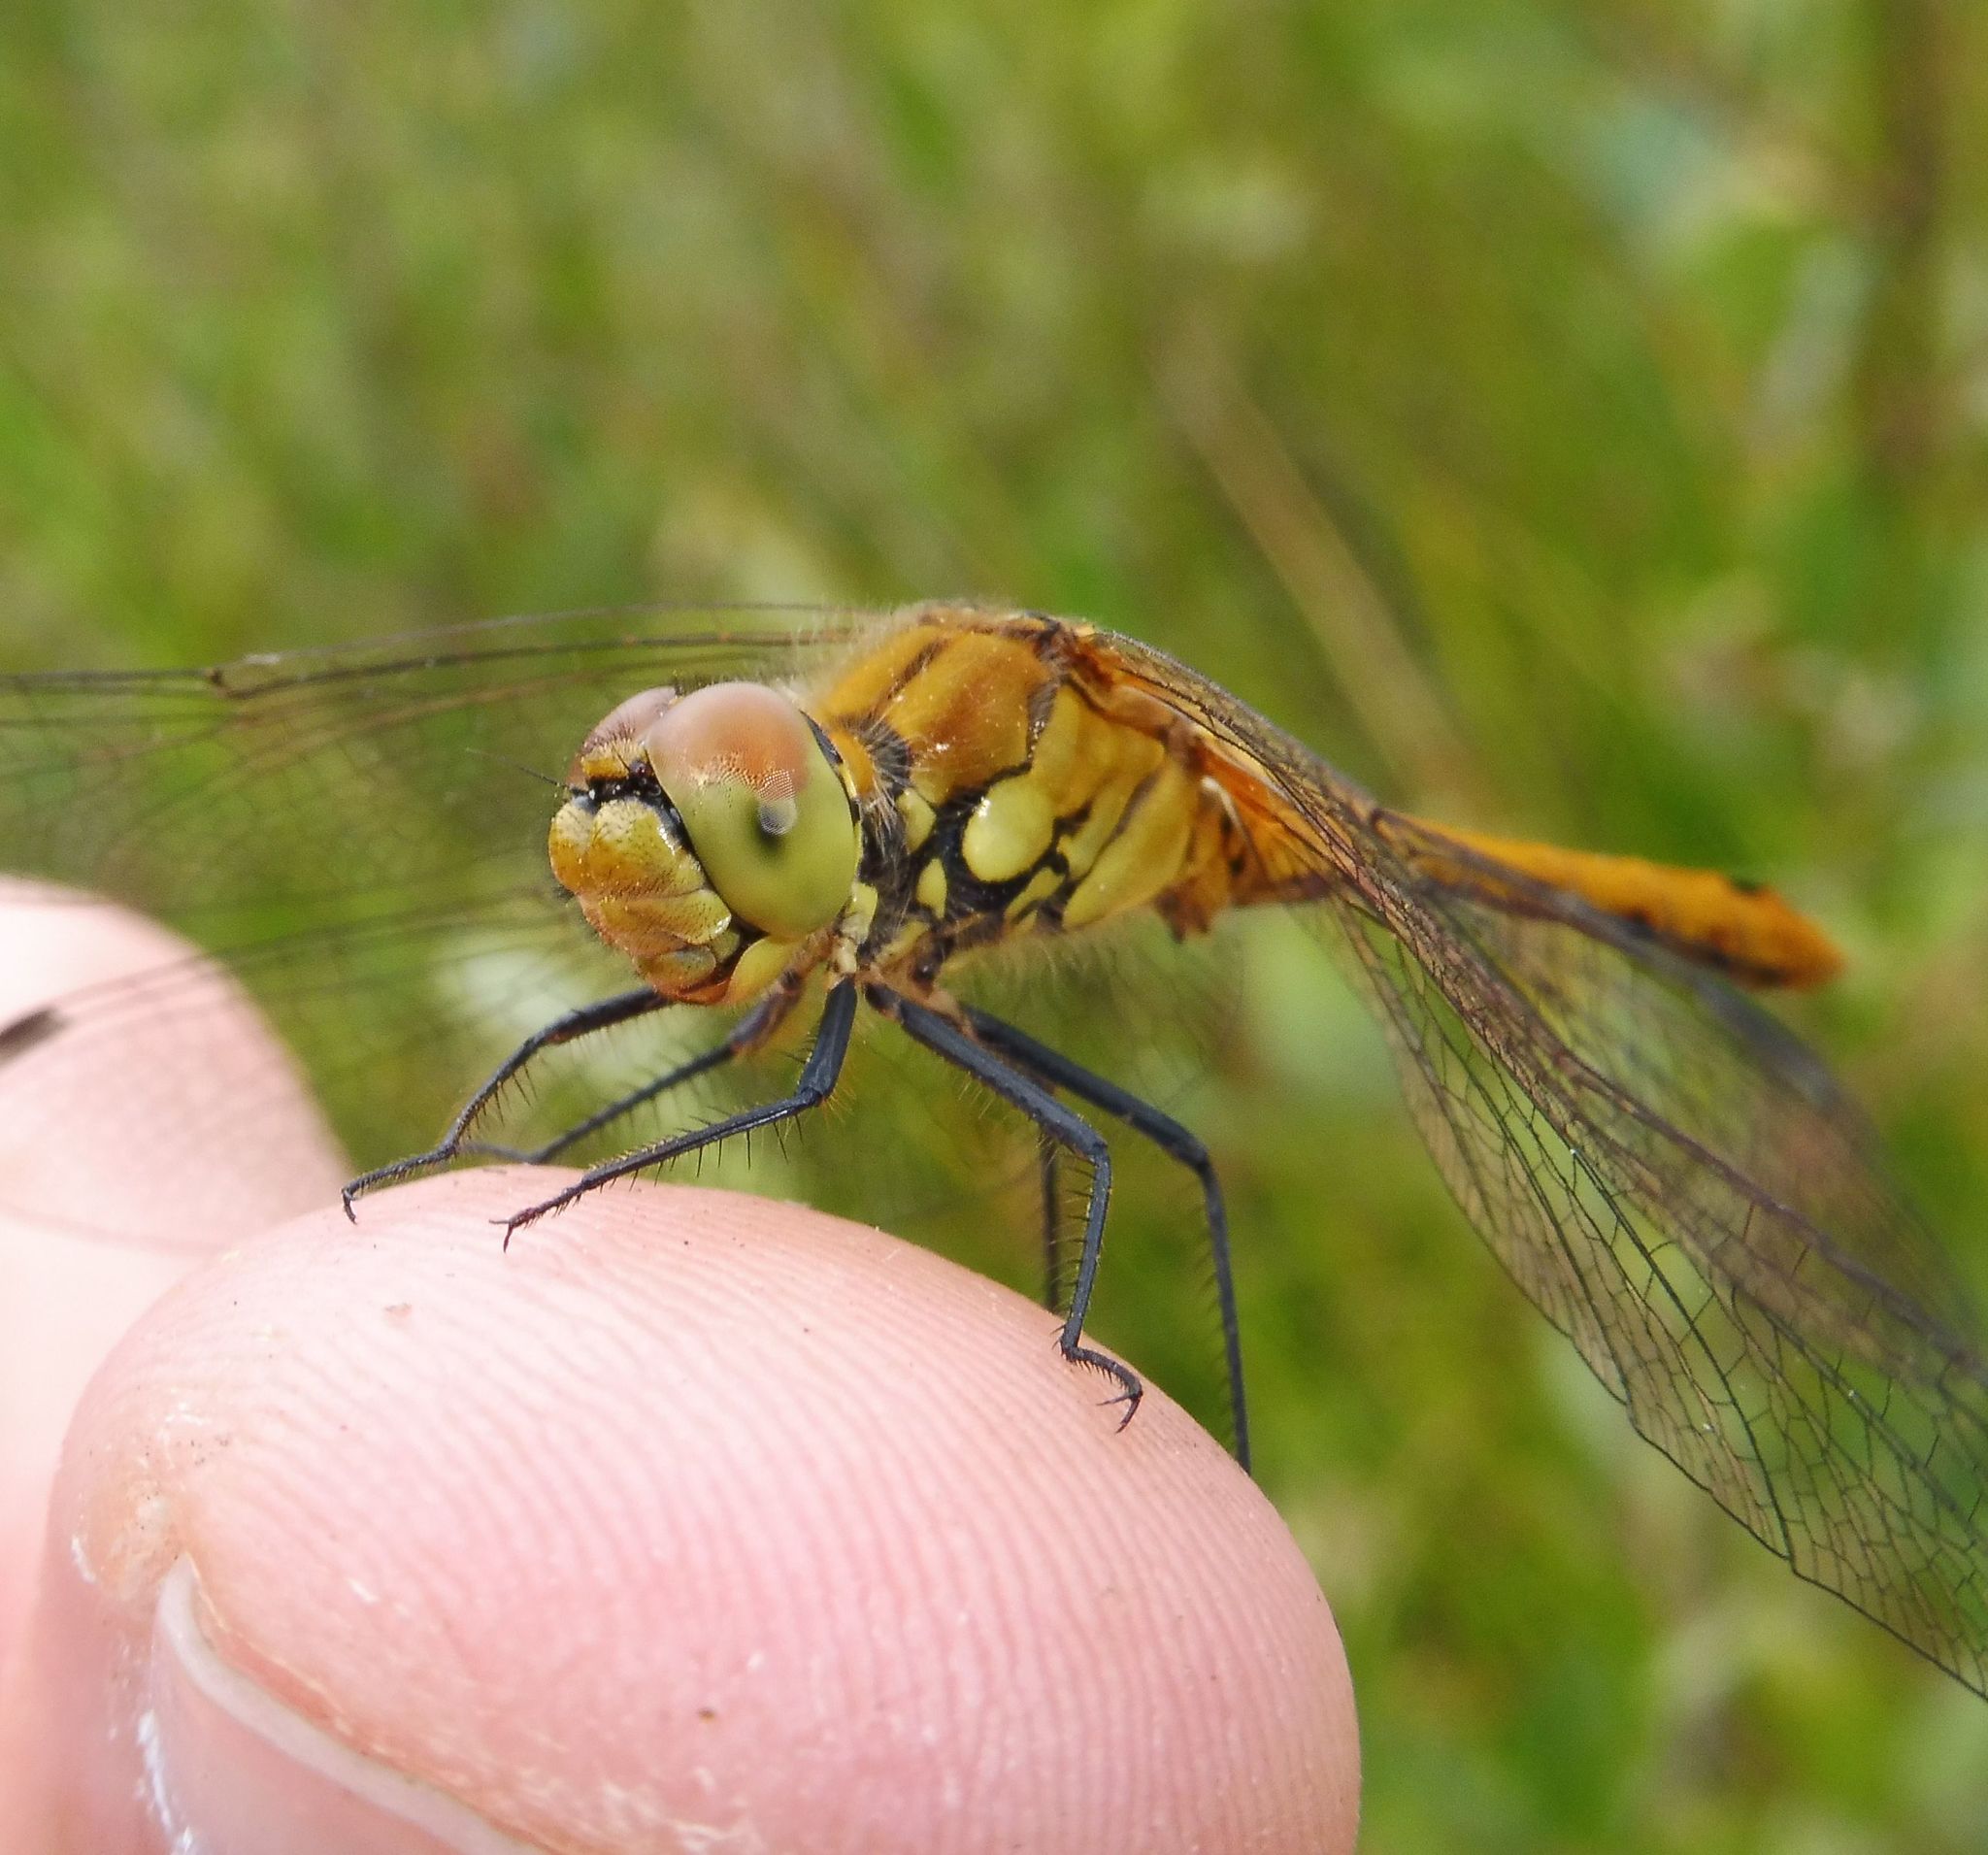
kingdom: Animalia
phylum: Arthropoda
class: Insecta
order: Odonata
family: Libellulidae
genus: Sympetrum
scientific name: Sympetrum sanguineum
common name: Ruddy darter
